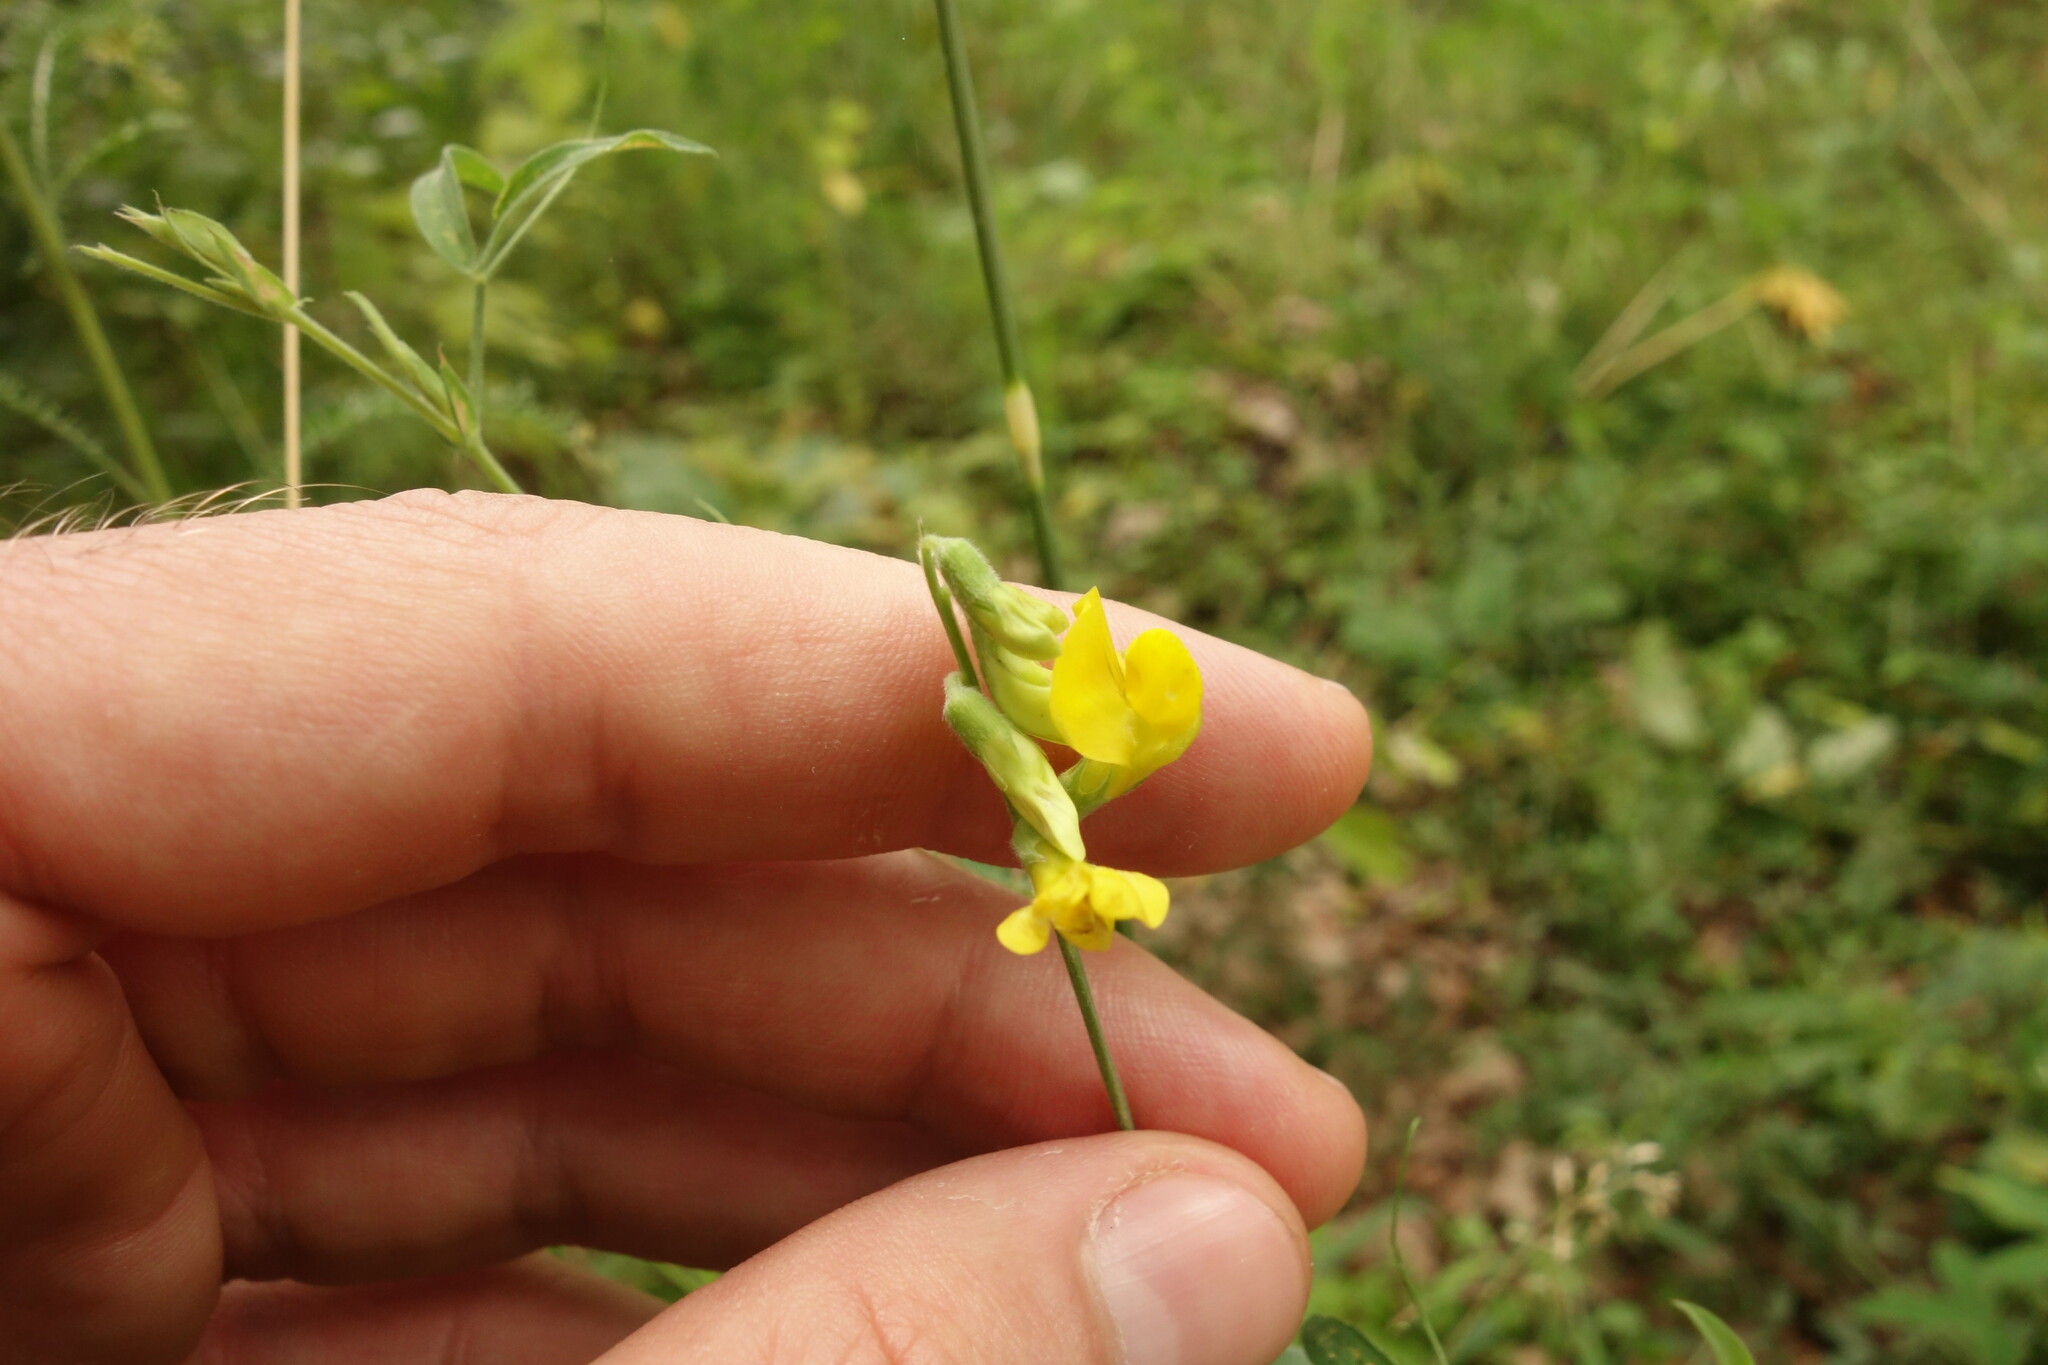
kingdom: Plantae
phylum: Tracheophyta
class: Magnoliopsida
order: Fabales
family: Fabaceae
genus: Lathyrus
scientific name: Lathyrus pratensis
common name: Meadow vetchling
